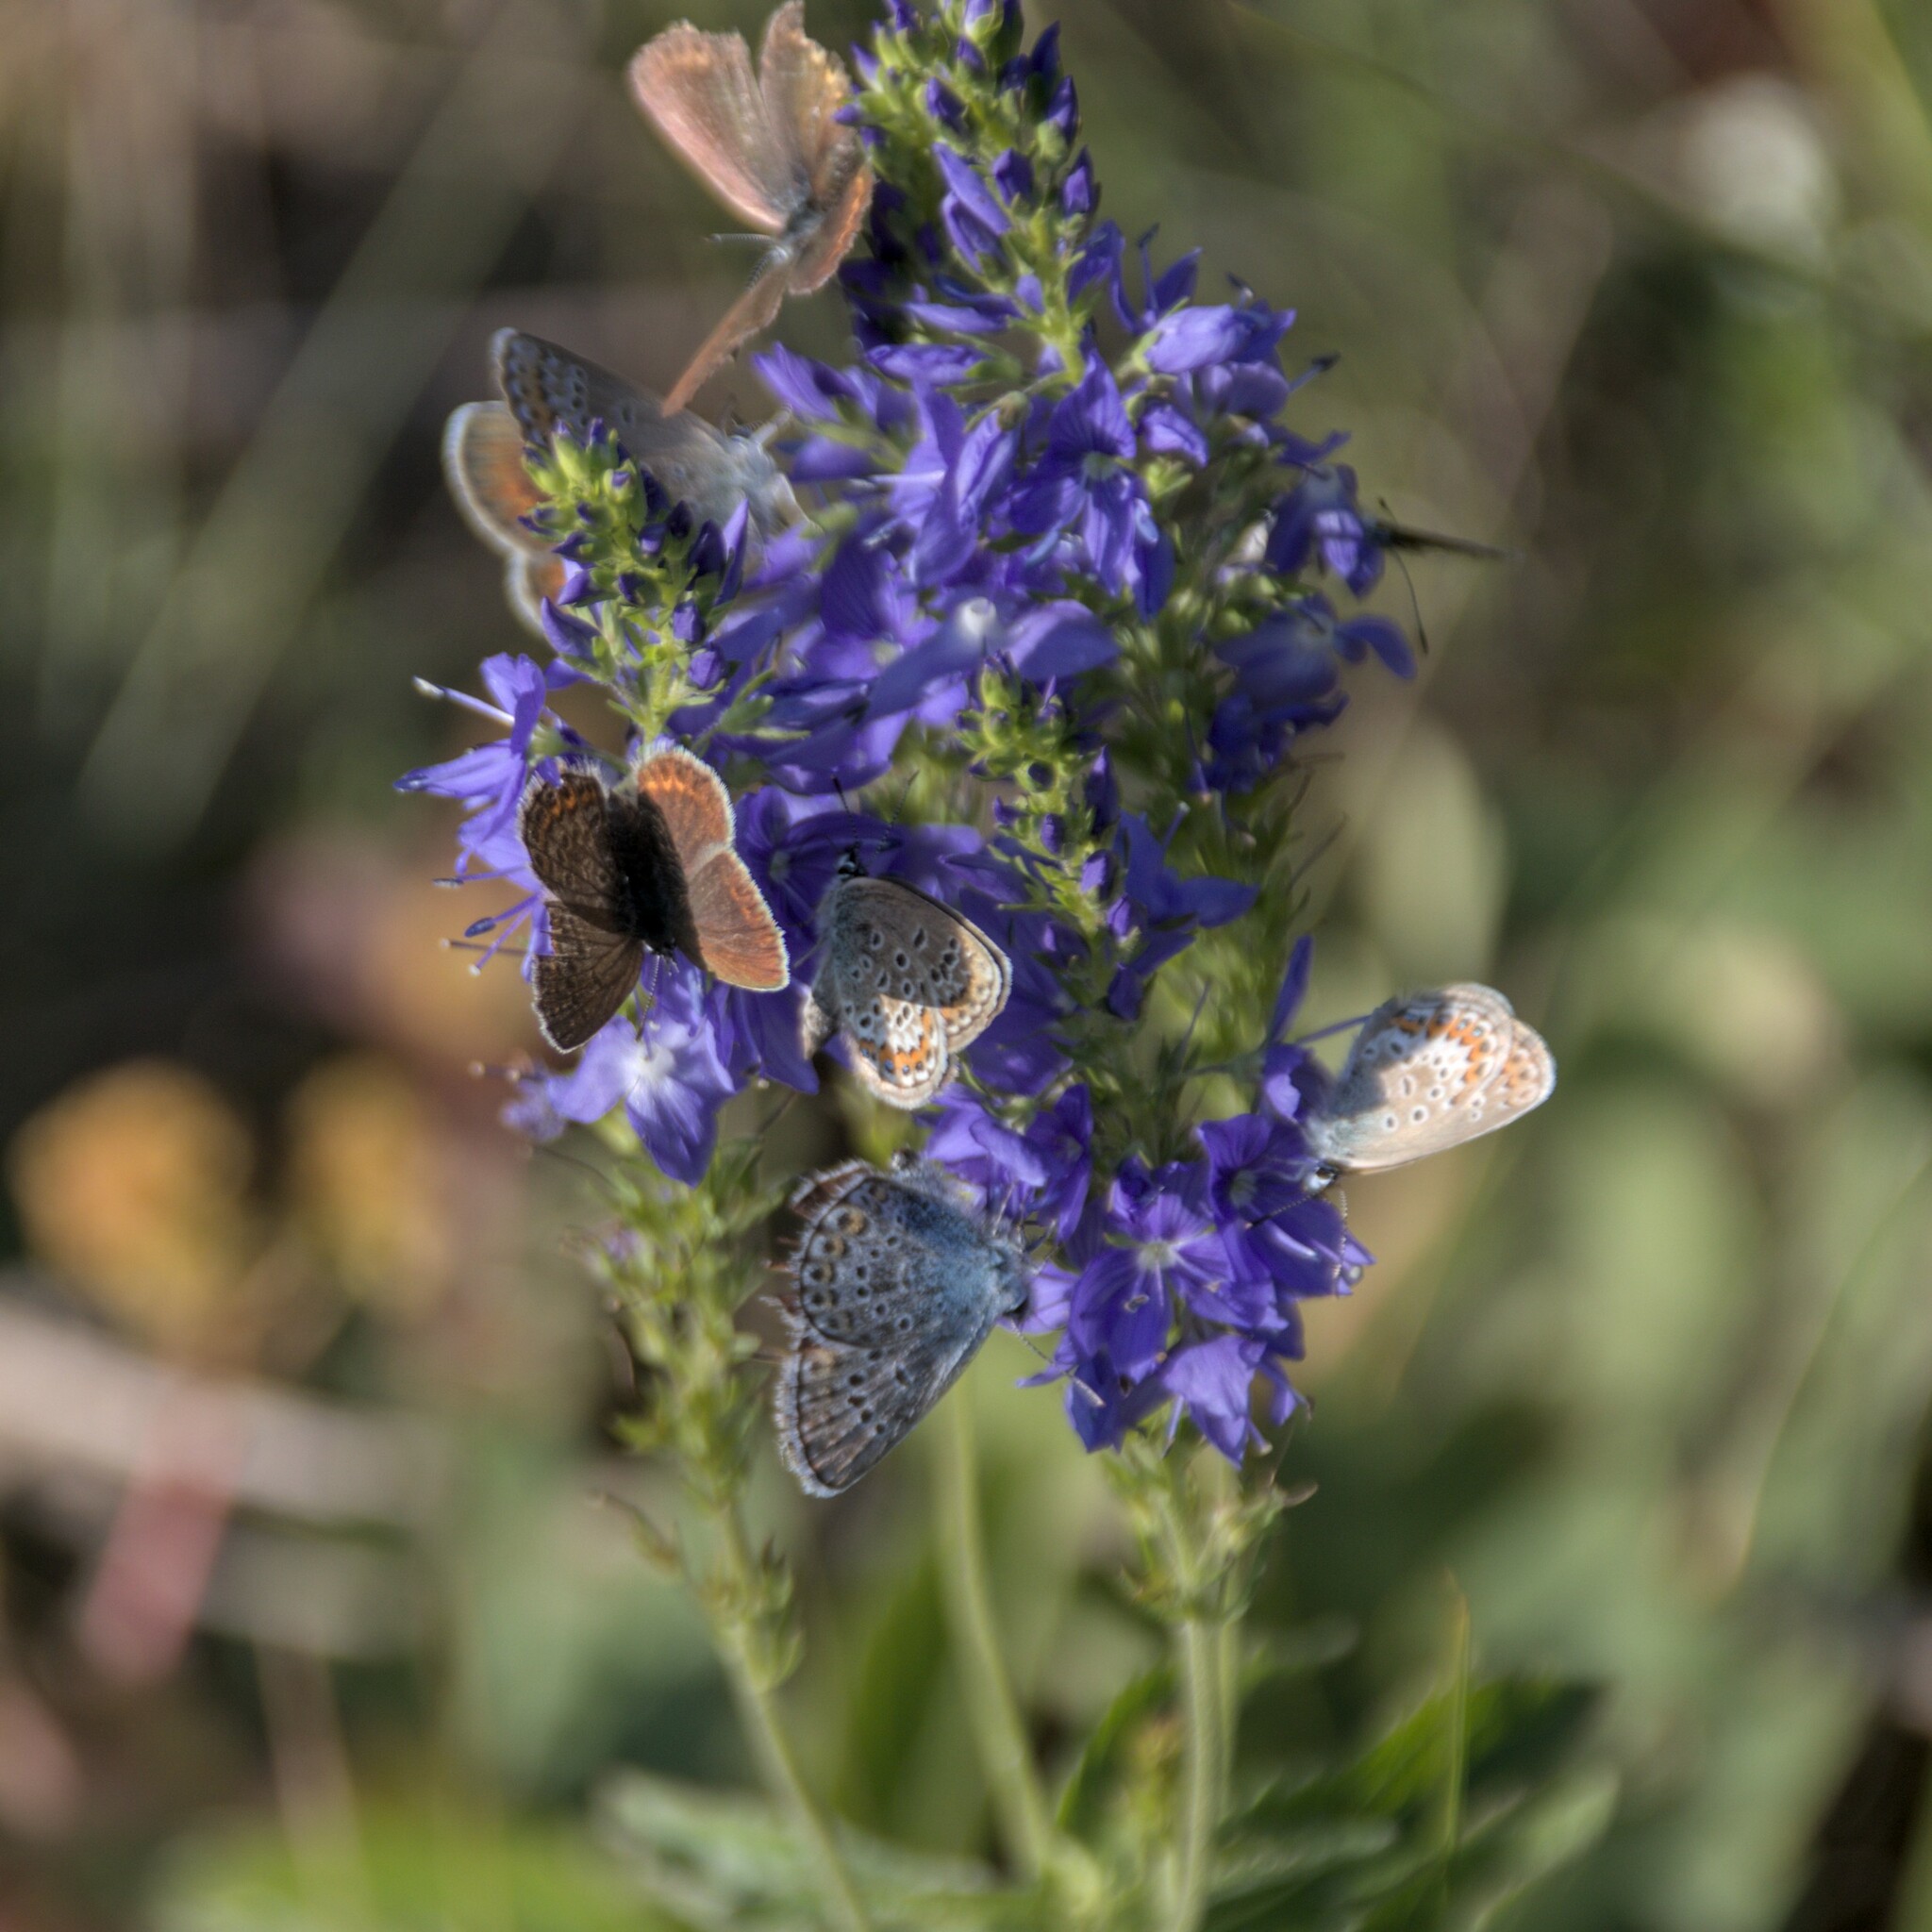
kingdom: Animalia
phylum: Arthropoda
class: Insecta
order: Lepidoptera
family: Lycaenidae
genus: Plebejus
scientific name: Plebejus argus
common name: Silver-studded blue
